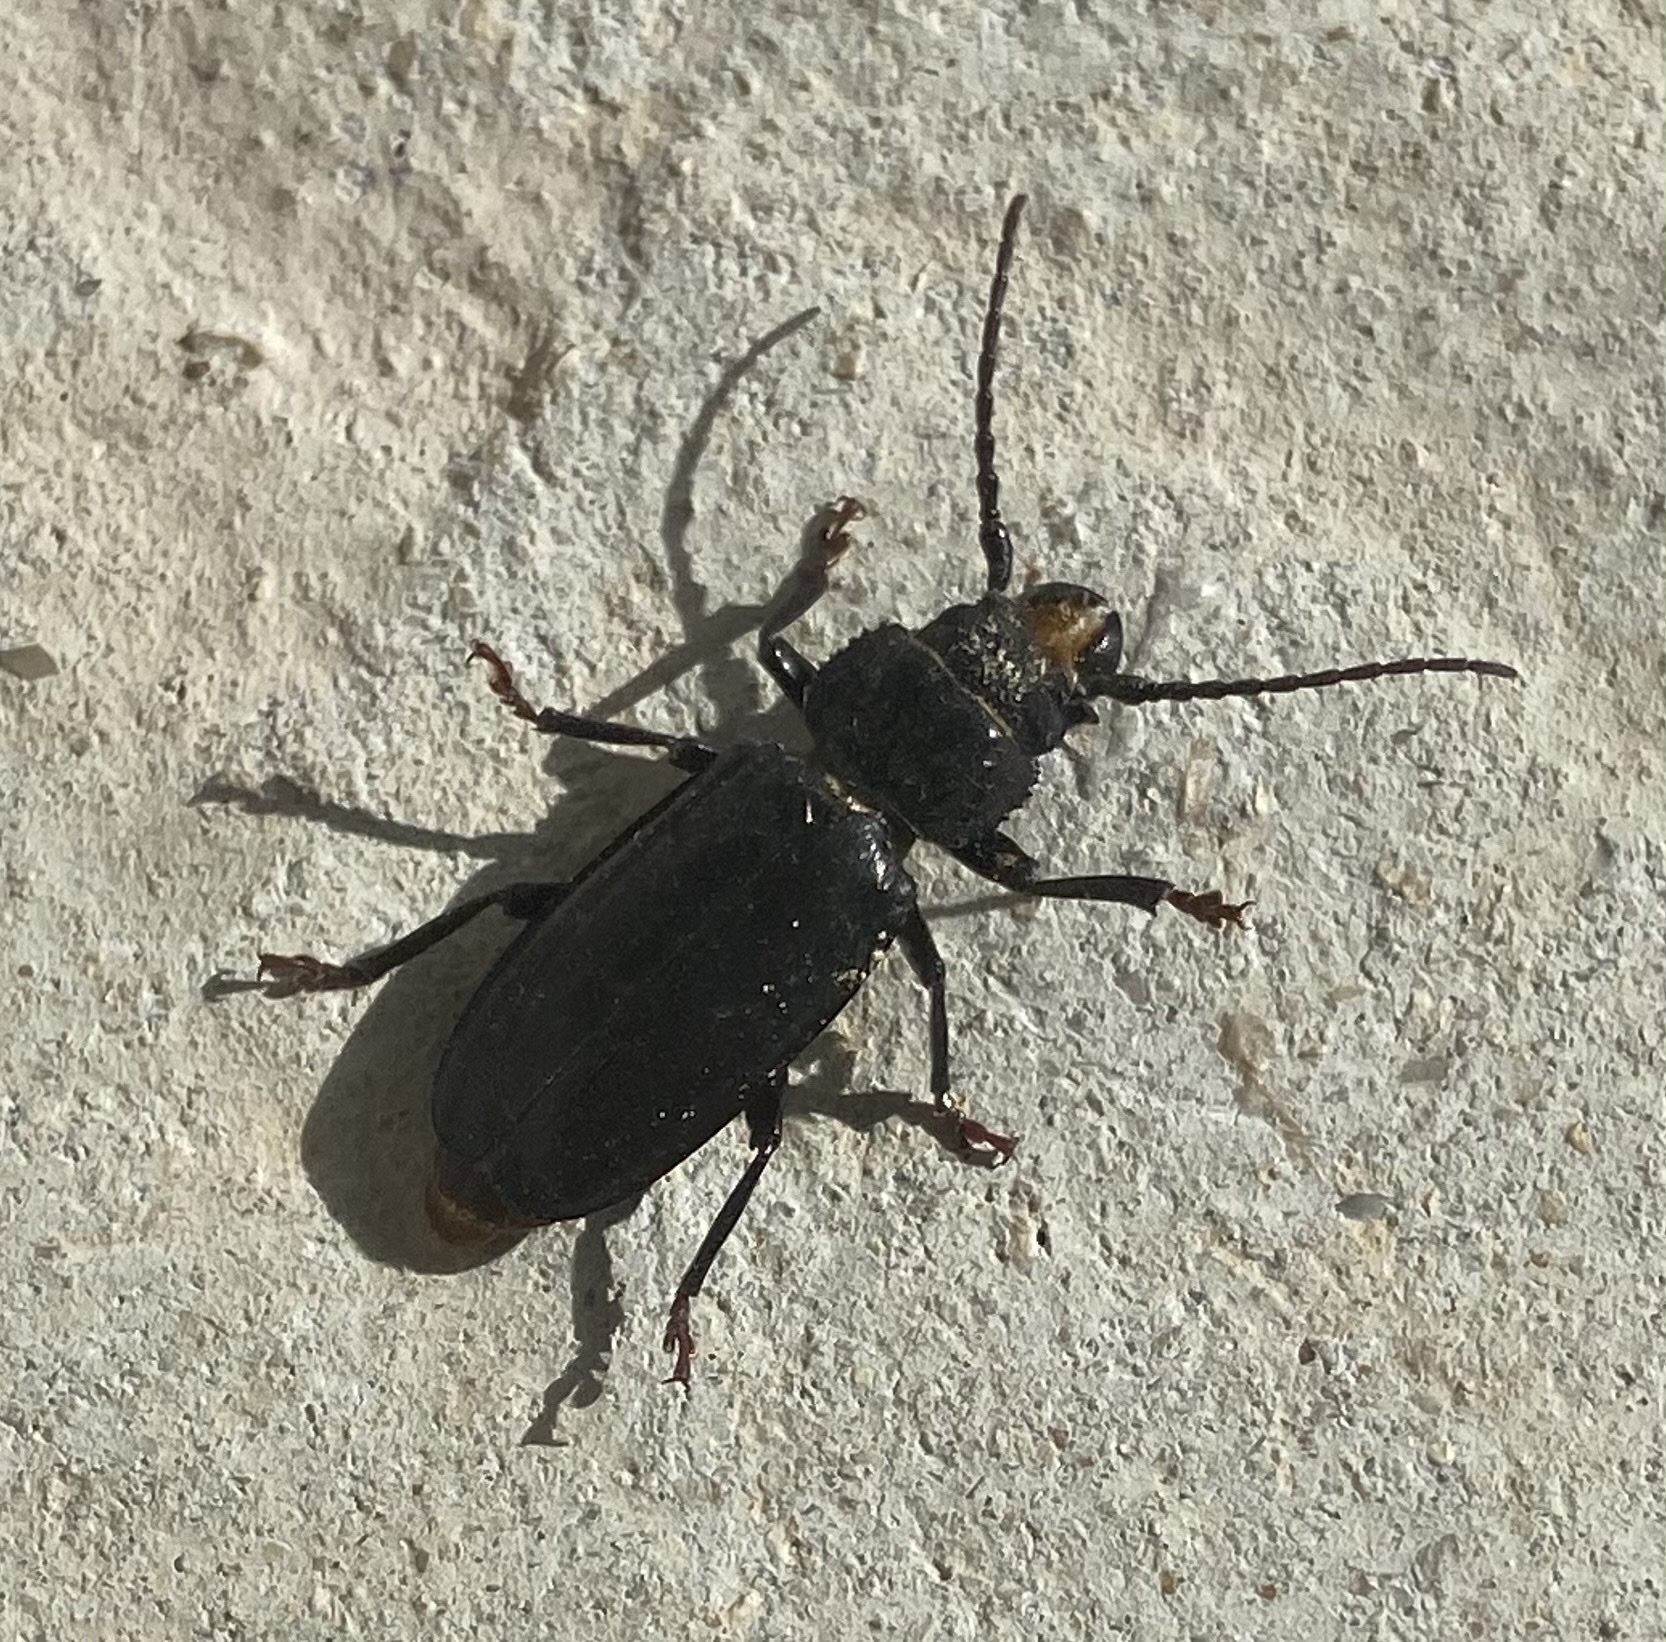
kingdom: Animalia
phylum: Arthropoda
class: Insecta
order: Coleoptera
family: Cerambycidae
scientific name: Cerambycidae
